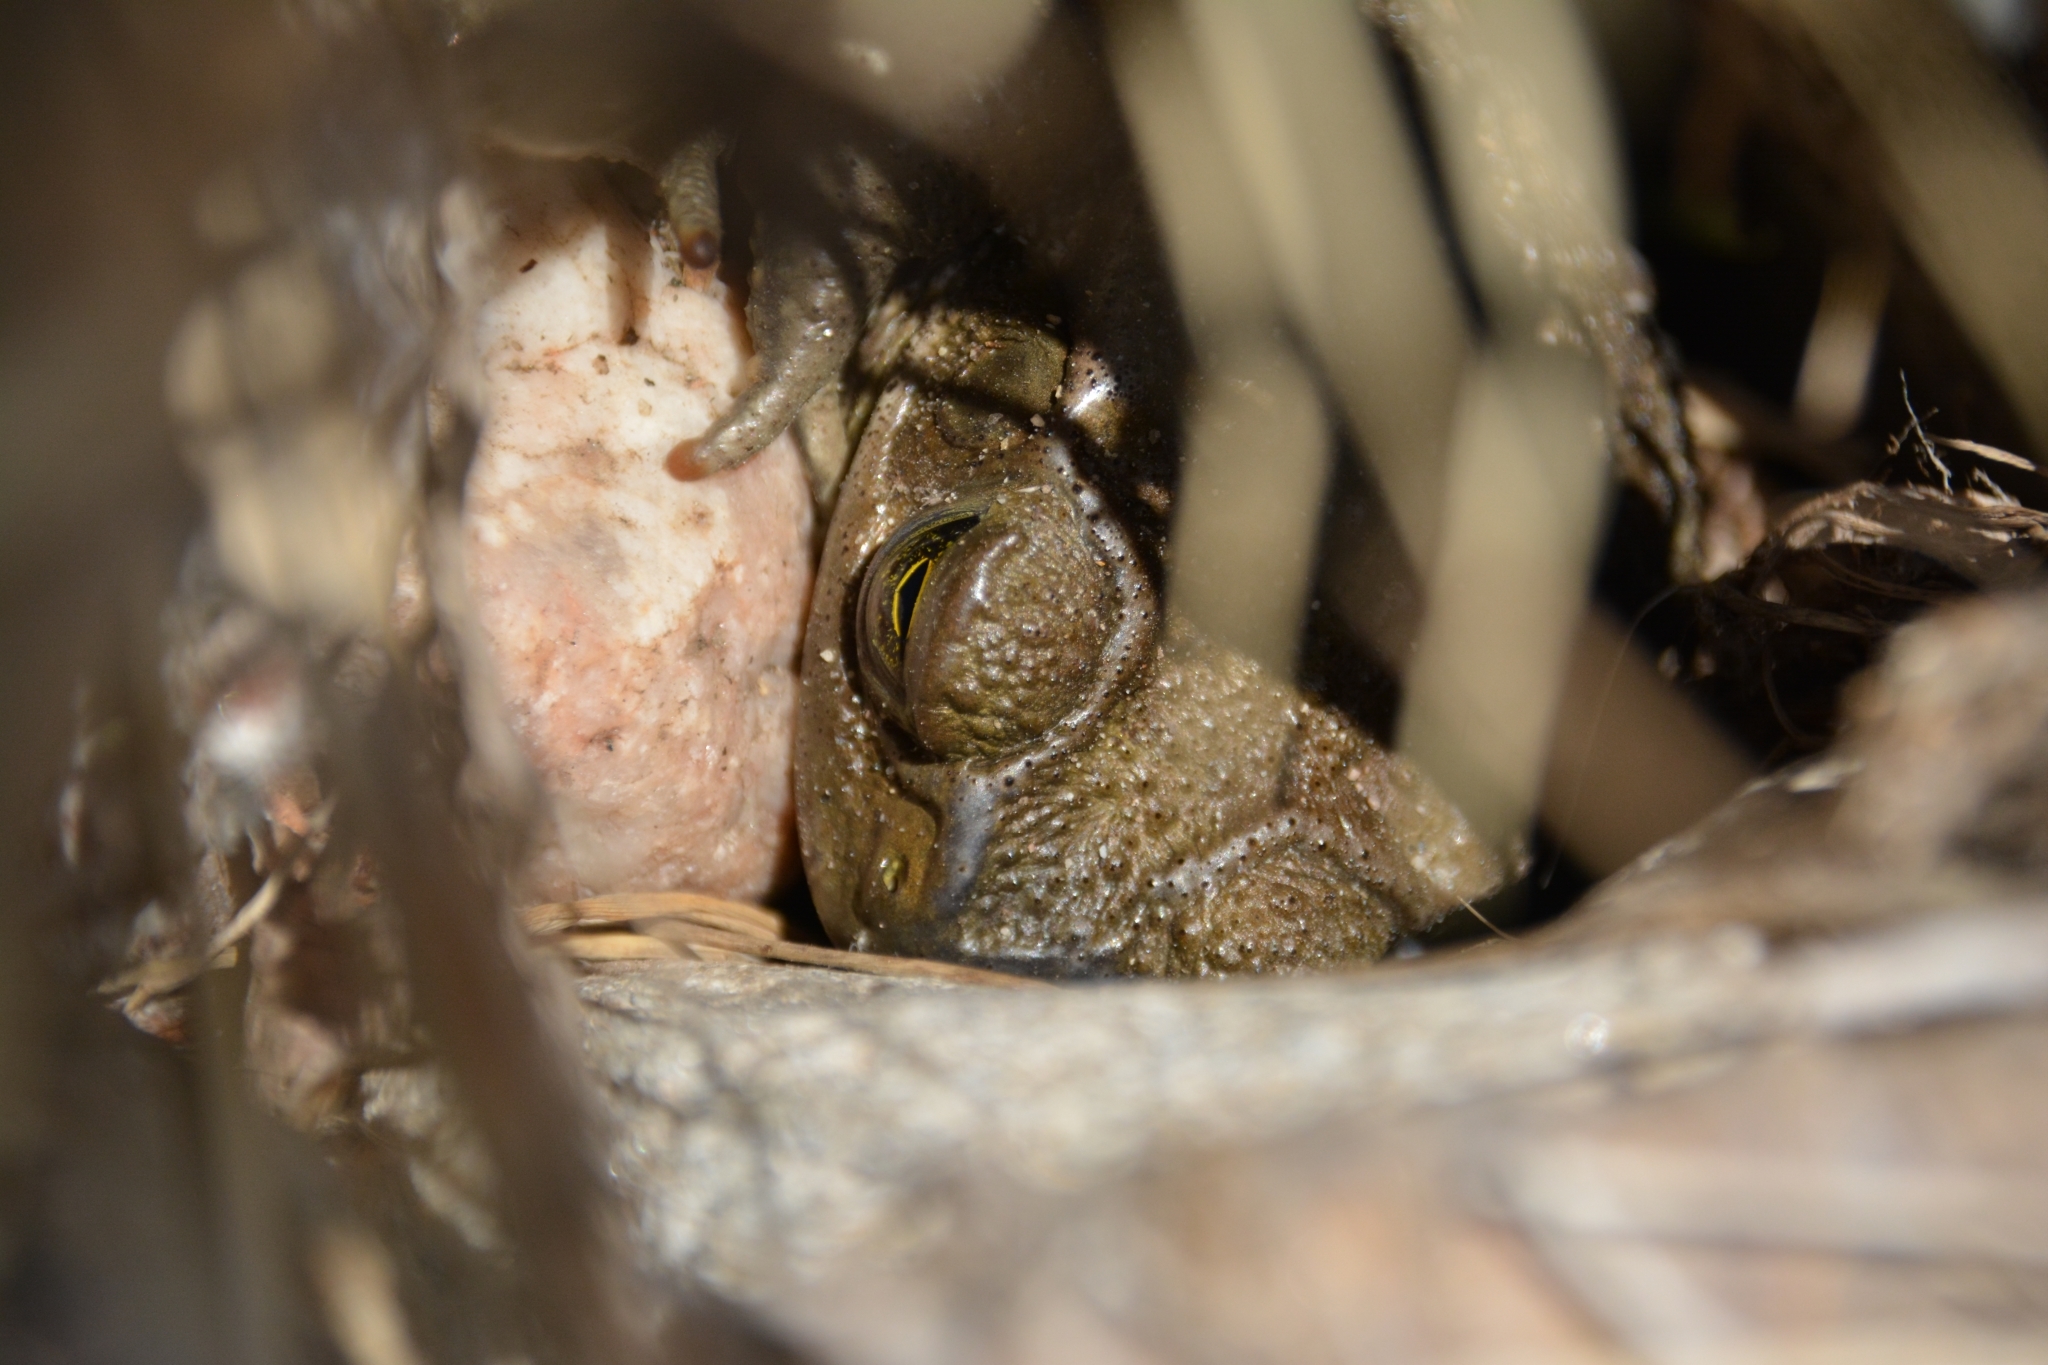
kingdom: Animalia
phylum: Chordata
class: Amphibia
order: Anura
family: Bufonidae
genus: Rhinella
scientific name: Rhinella arenarum
